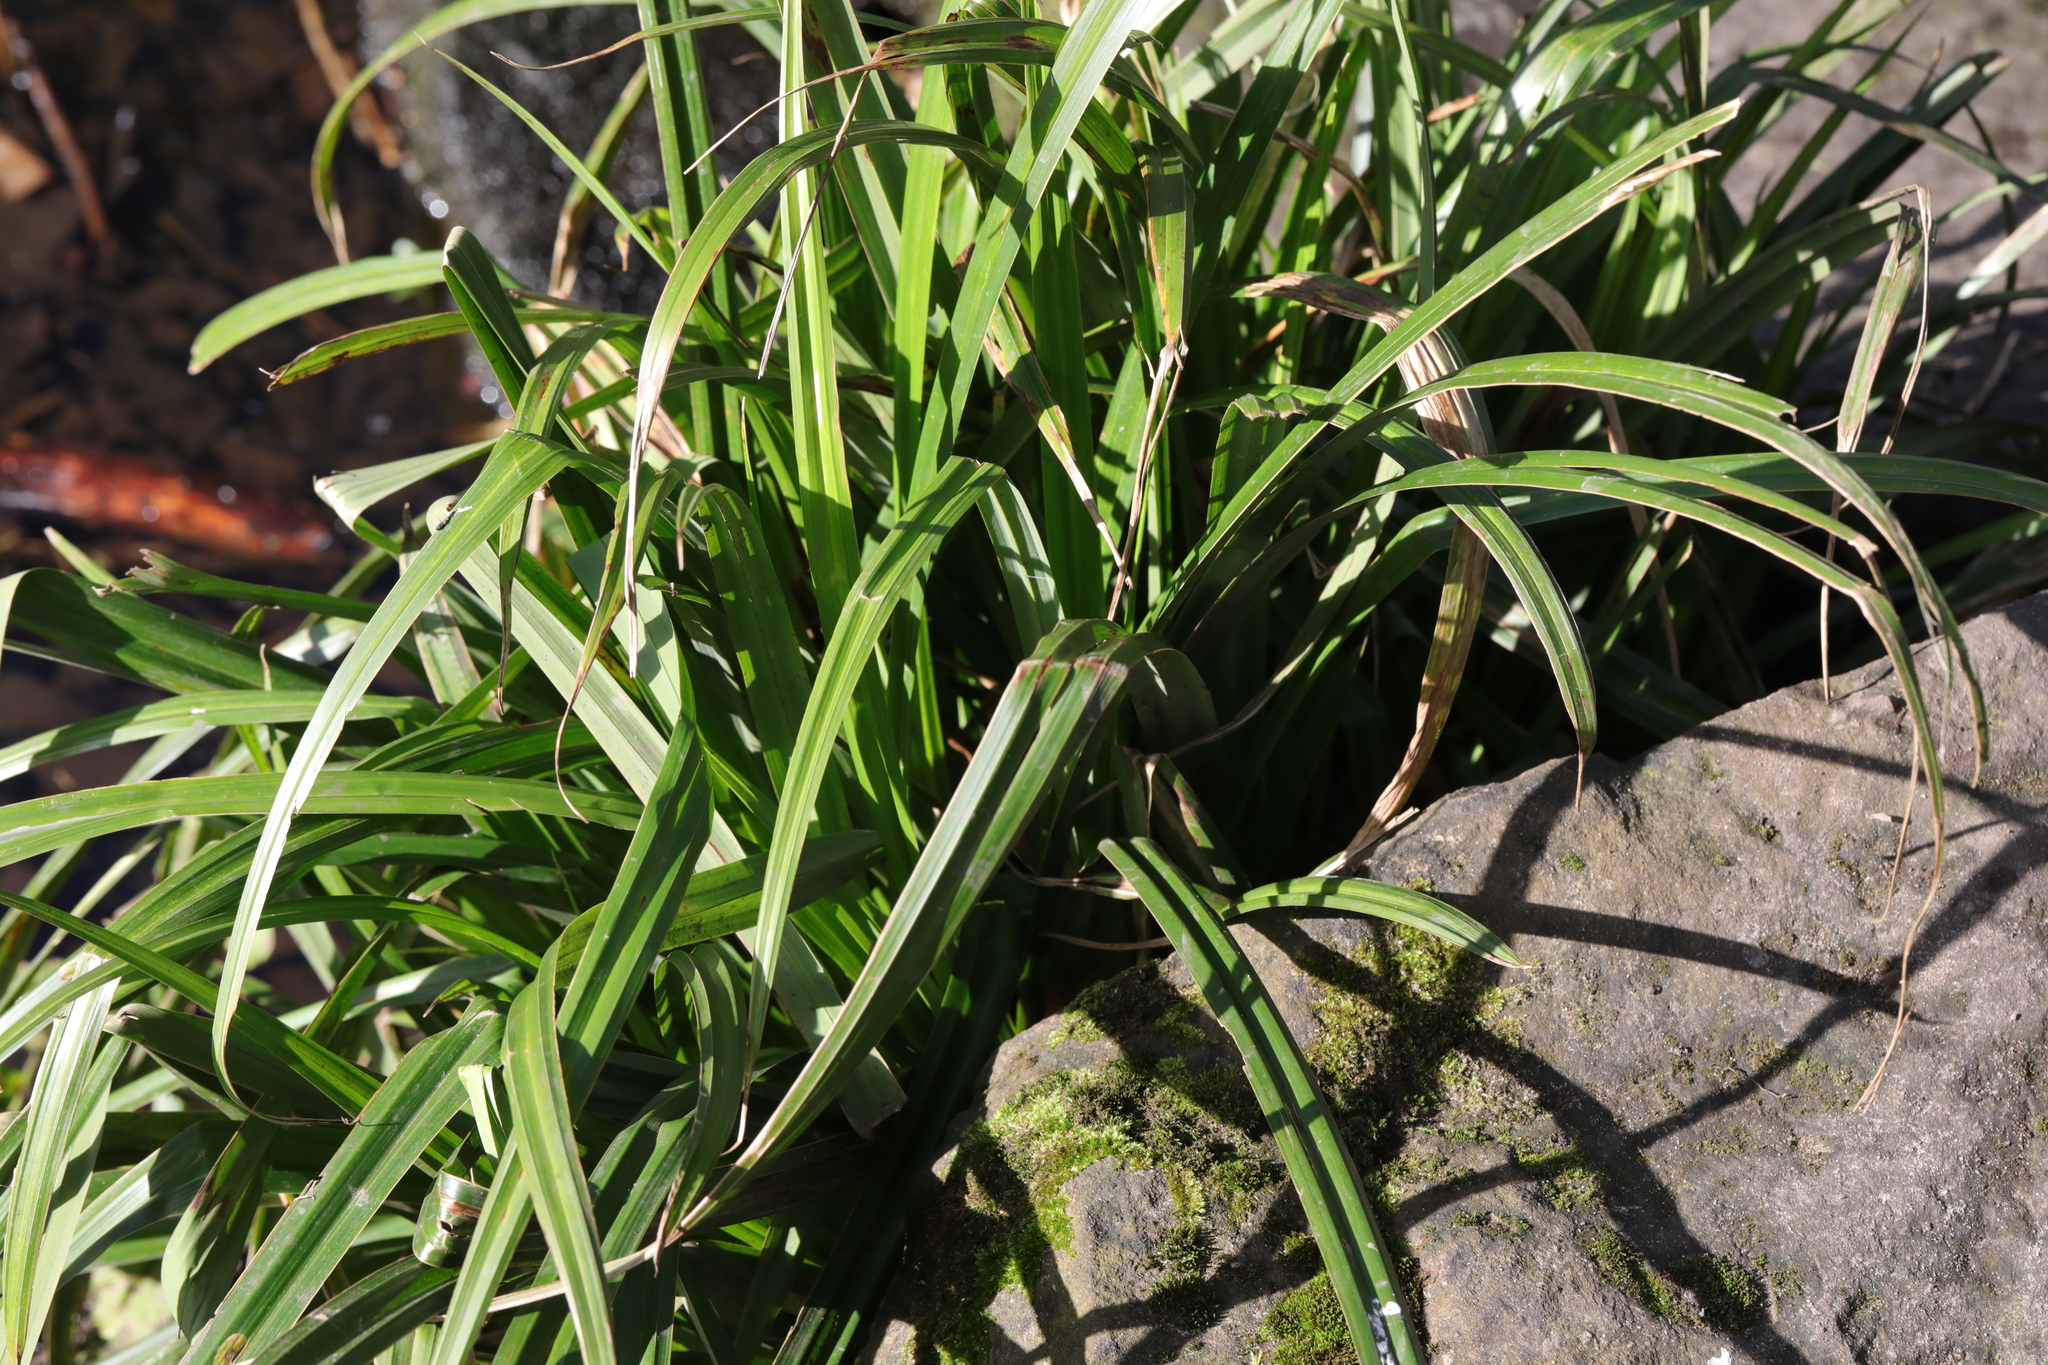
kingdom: Plantae
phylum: Tracheophyta
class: Liliopsida
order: Poales
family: Cyperaceae
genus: Carex
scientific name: Carex pendula
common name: Pendulous sedge
